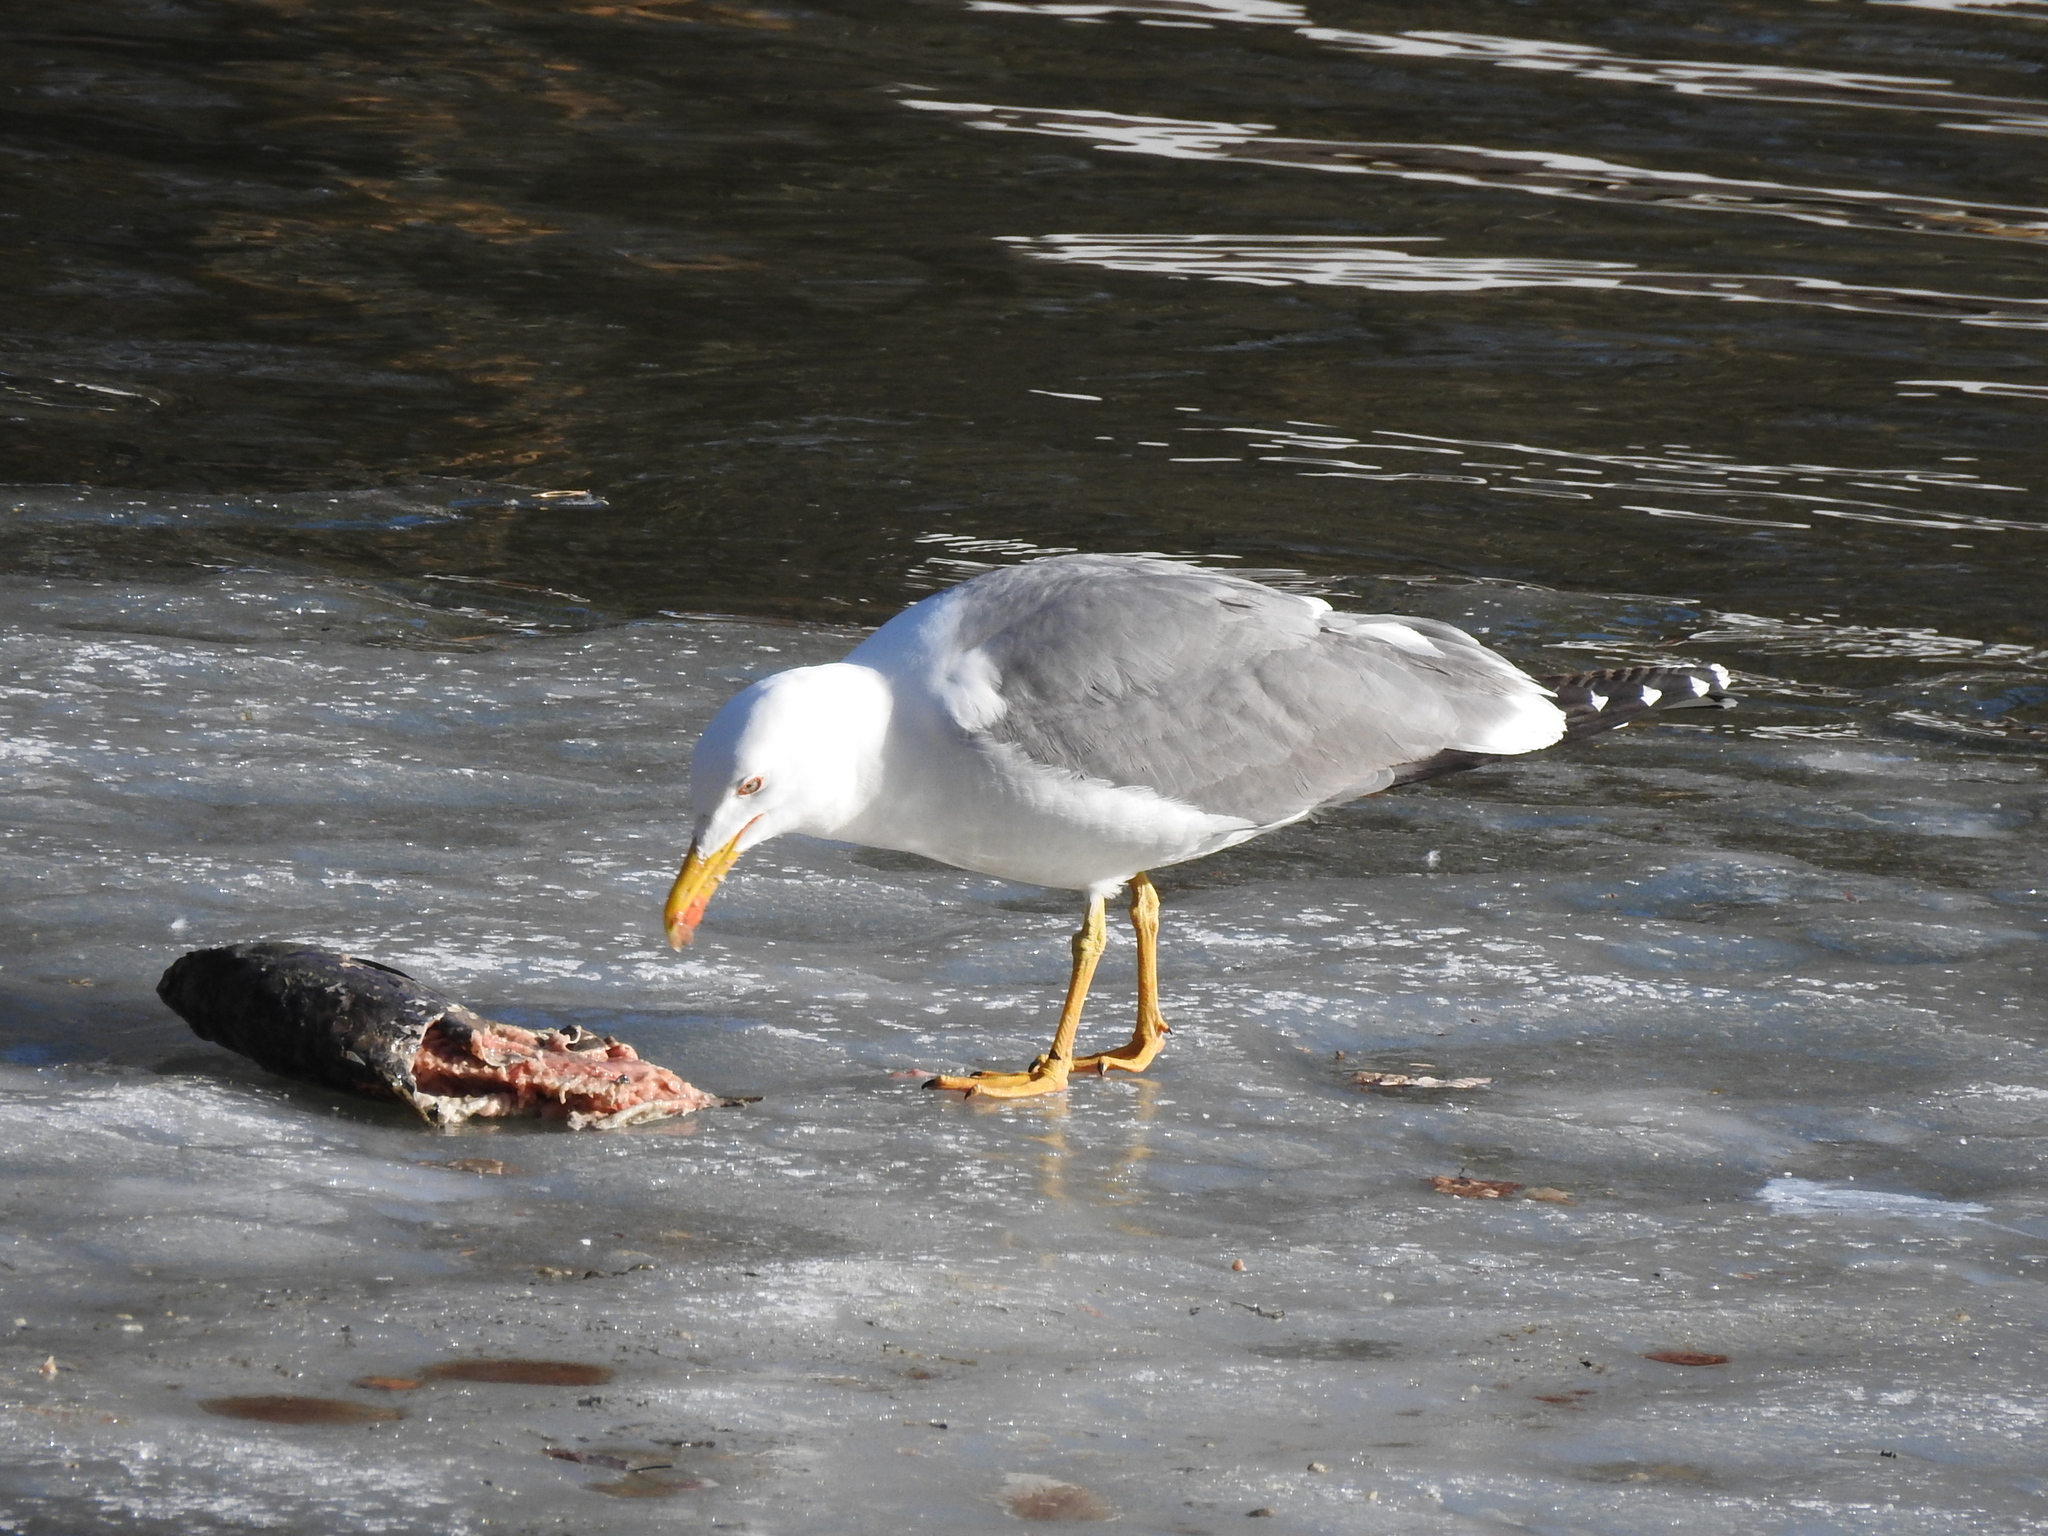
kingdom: Animalia
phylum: Chordata
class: Aves
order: Charadriiformes
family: Laridae
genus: Larus
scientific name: Larus fuscus
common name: Lesser black-backed gull
